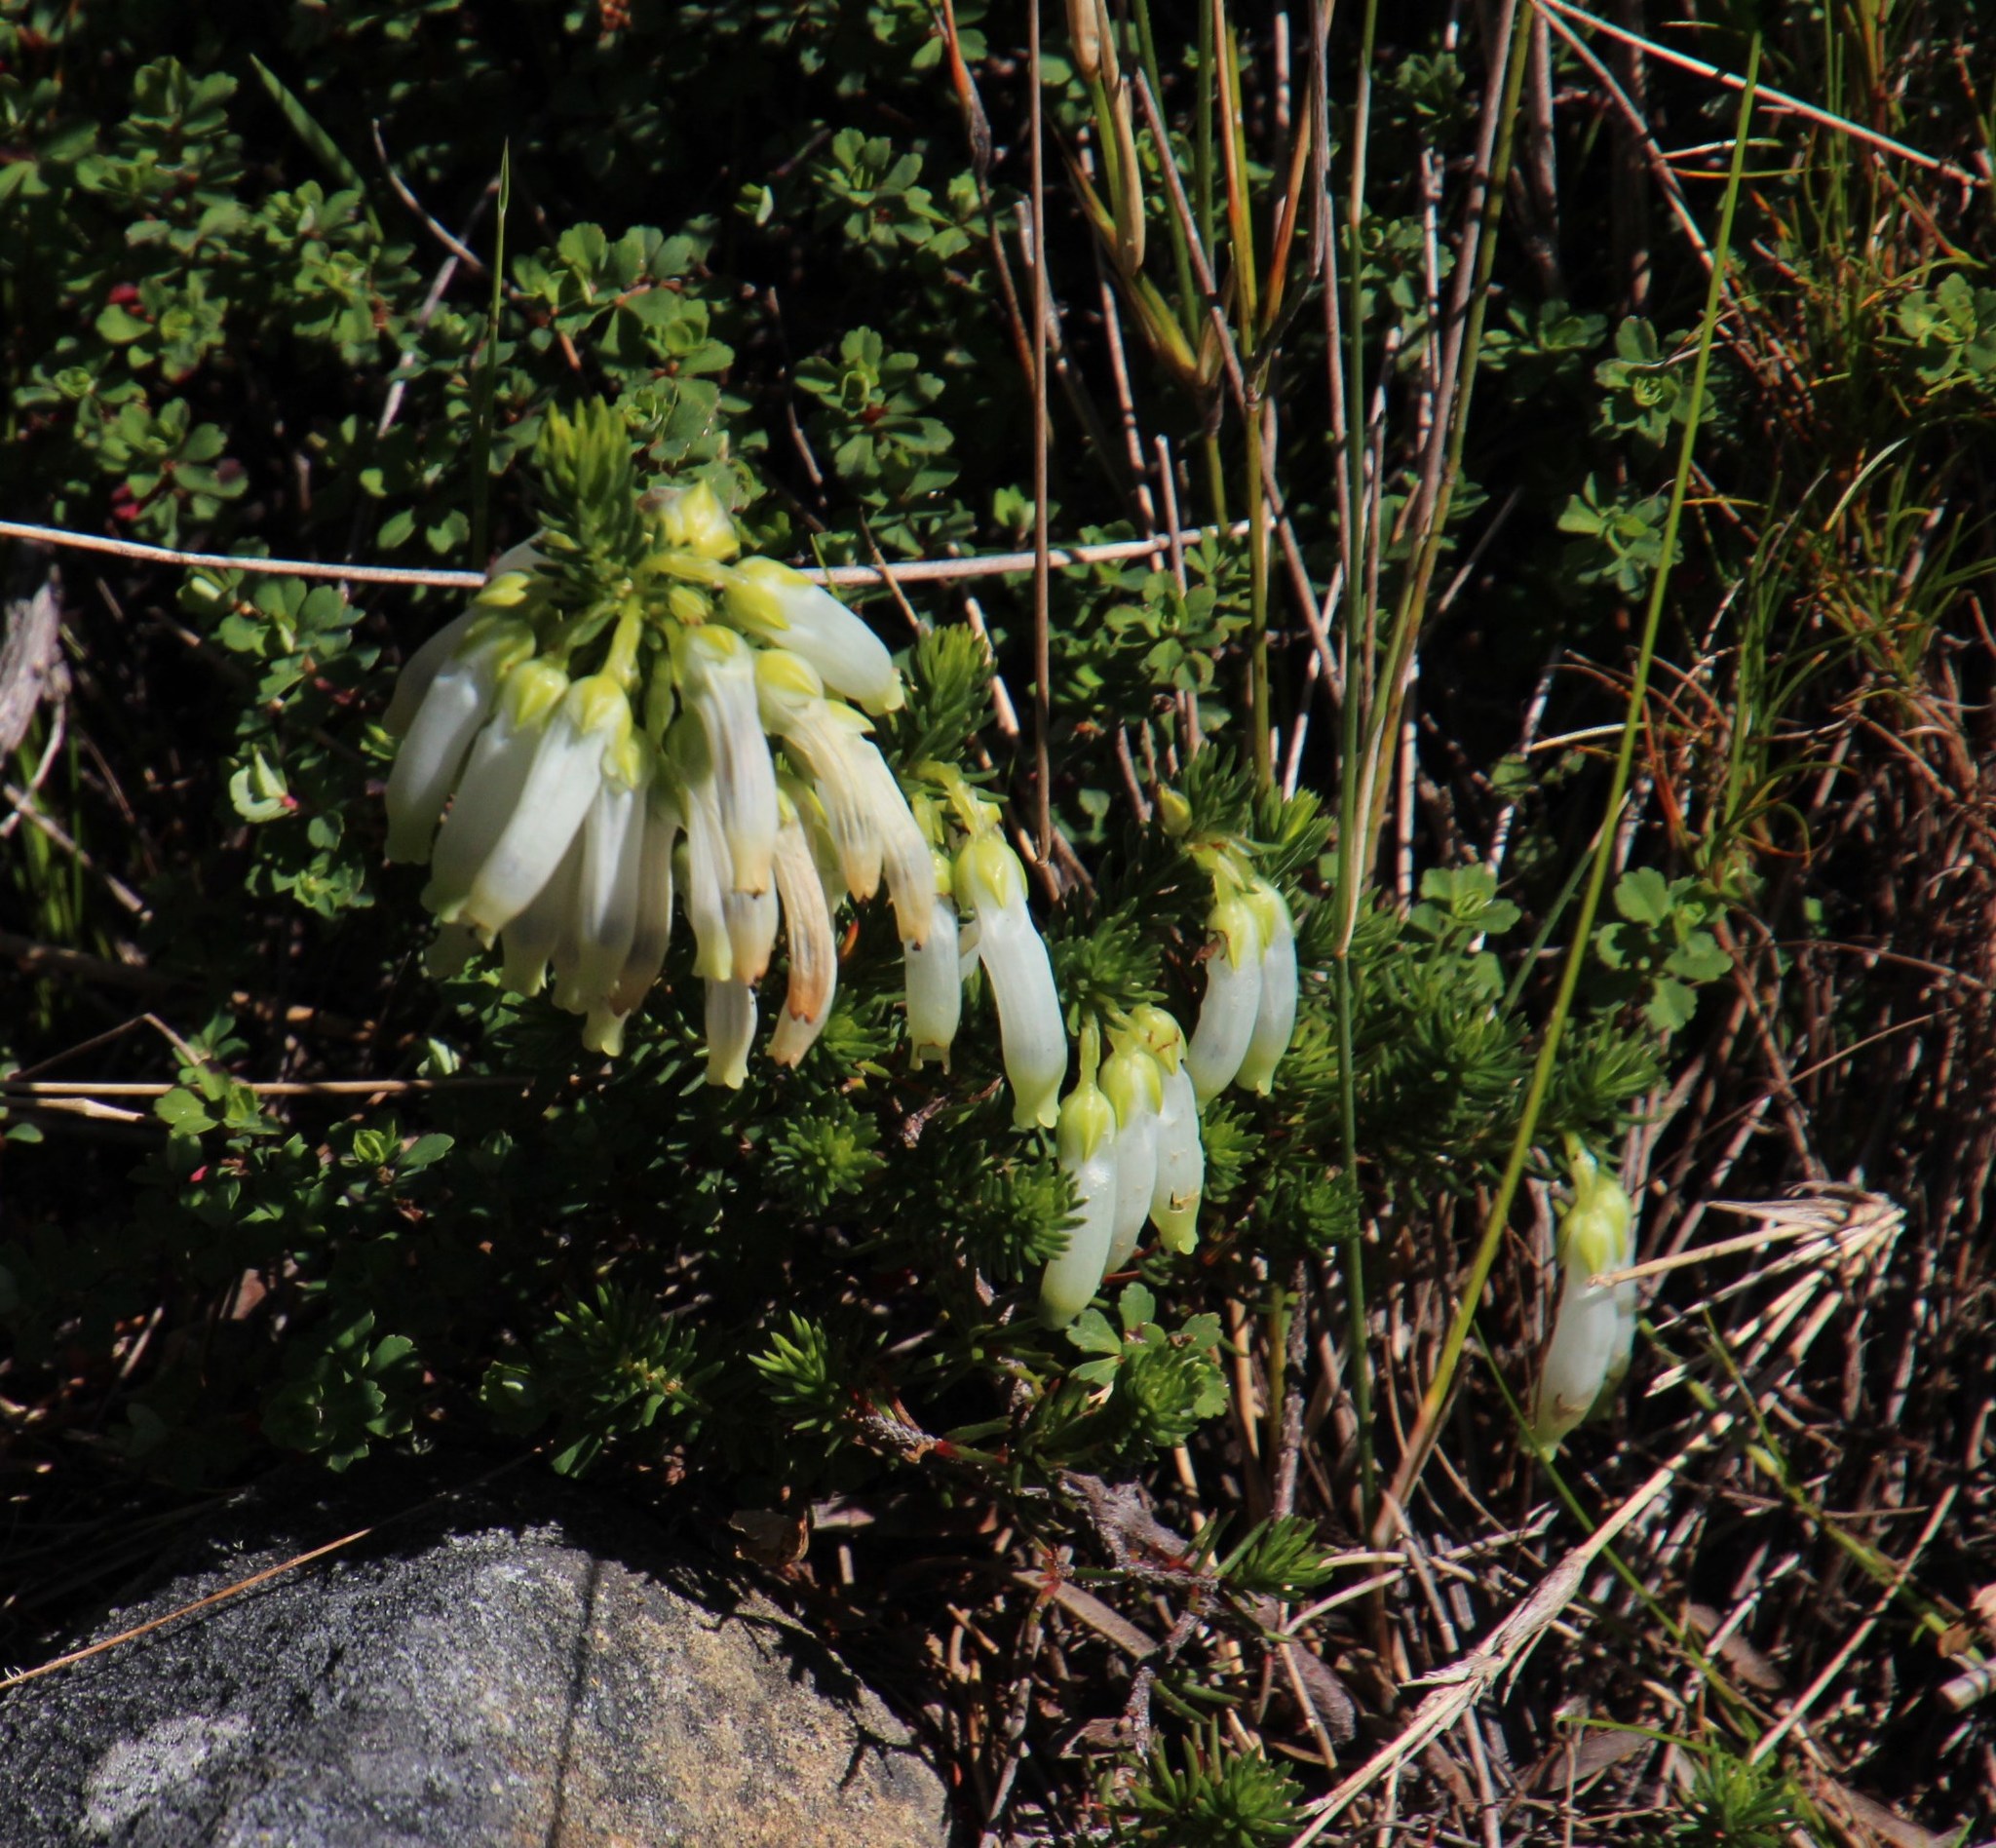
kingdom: Plantae
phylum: Tracheophyta
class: Magnoliopsida
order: Ericales
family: Ericaceae
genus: Erica
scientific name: Erica mammosa
